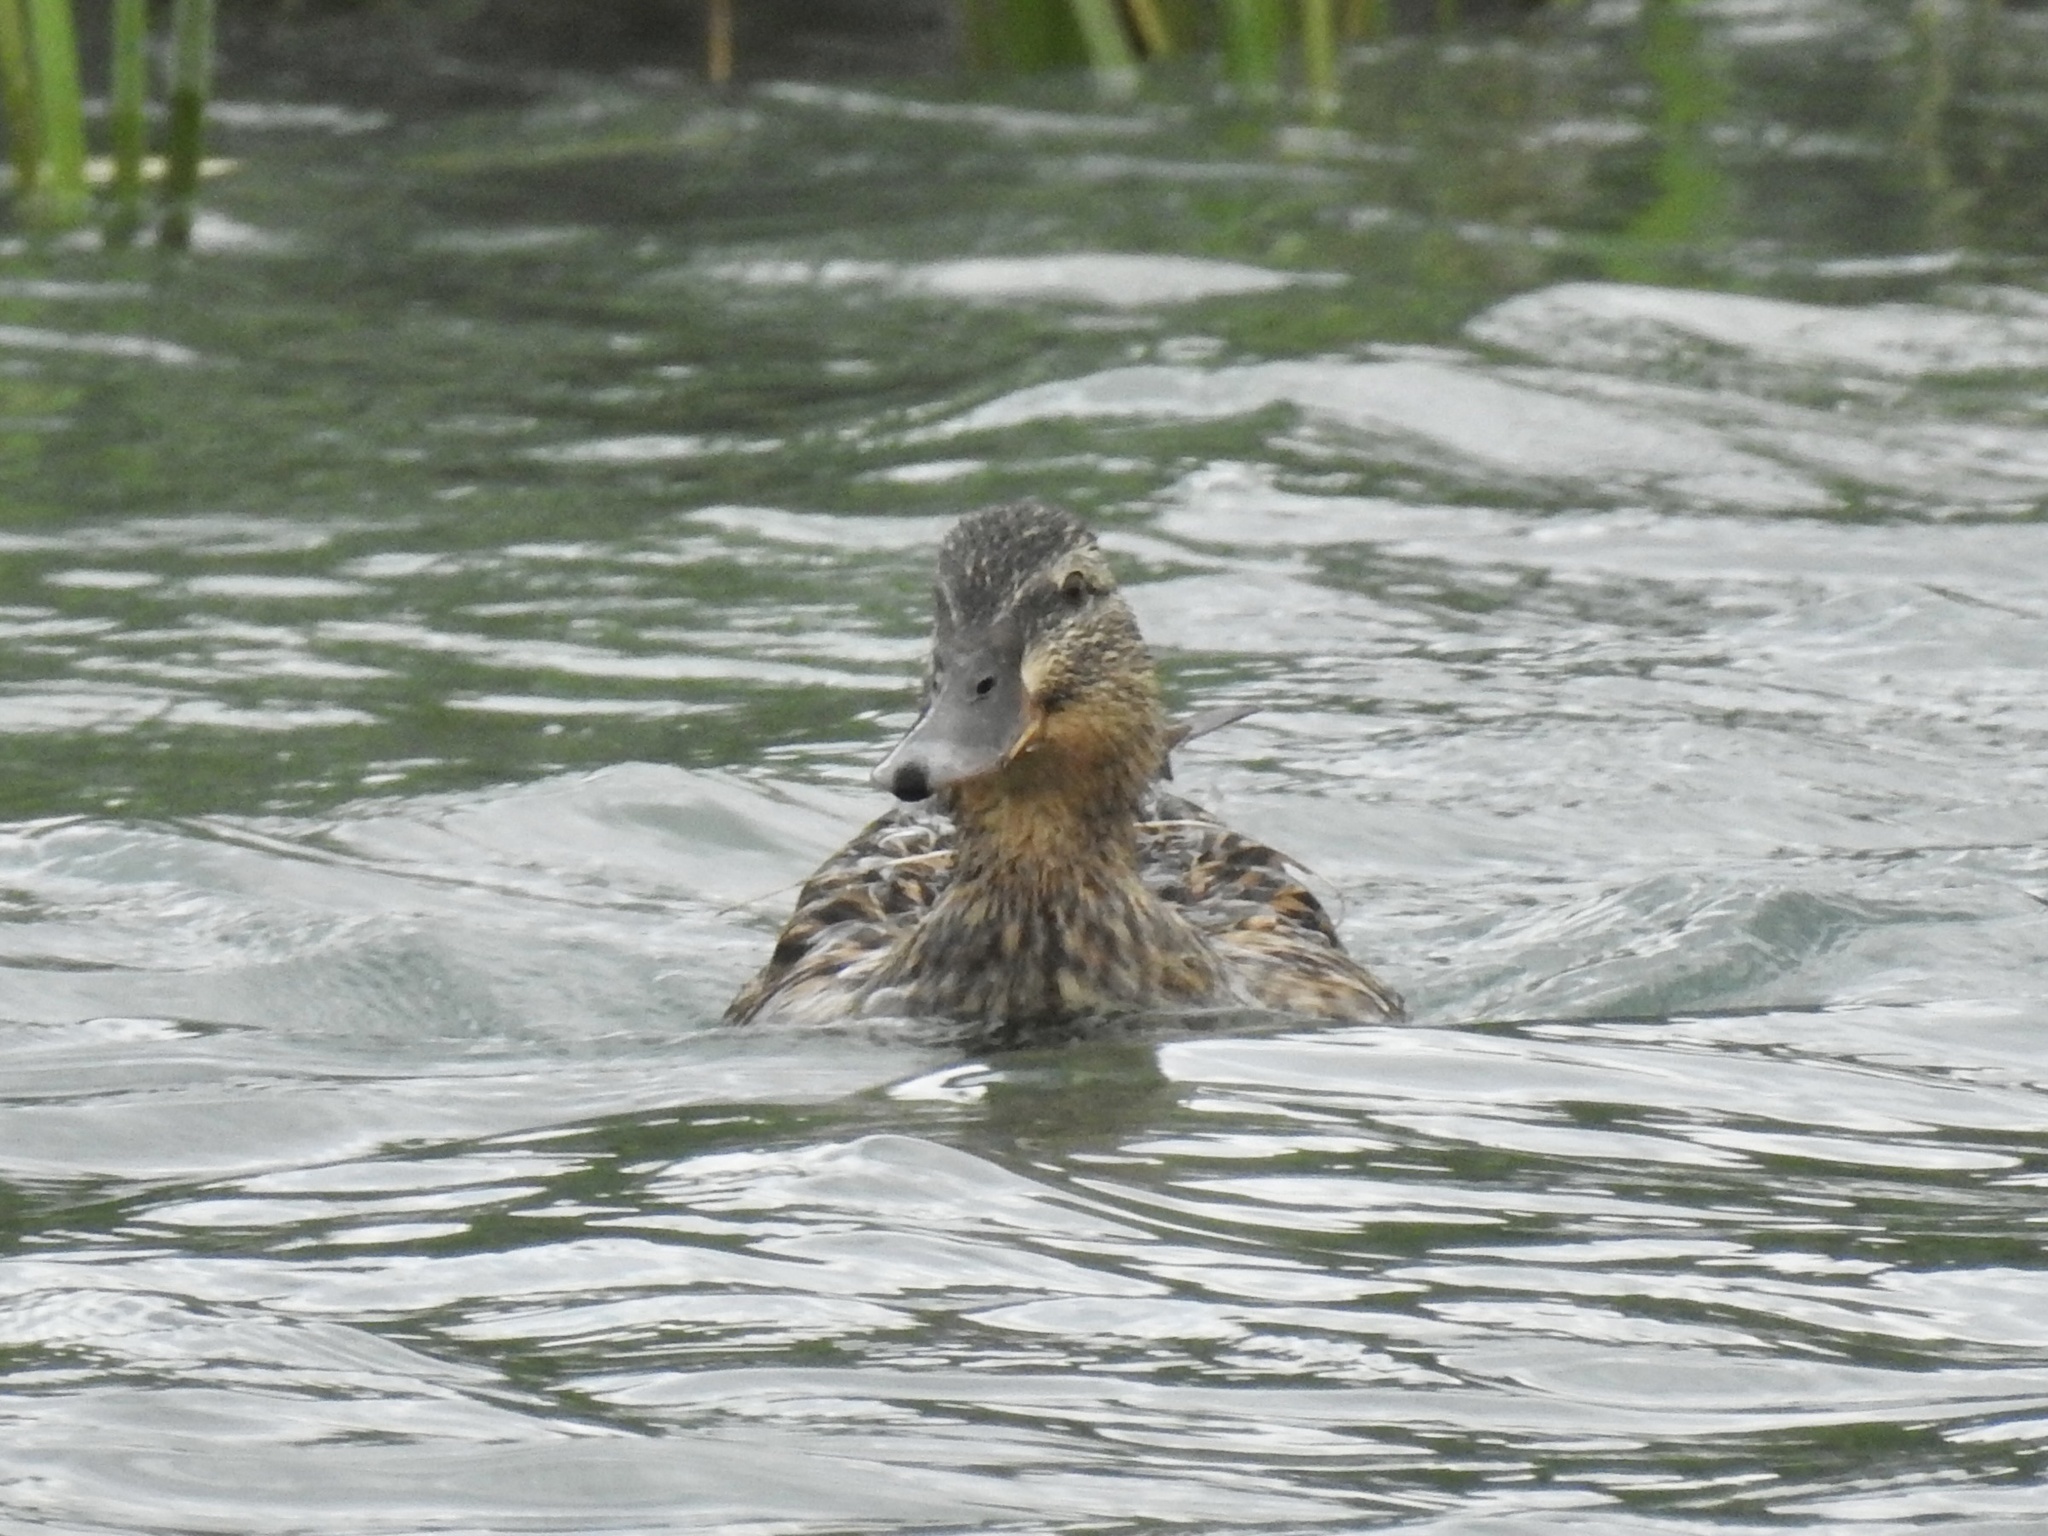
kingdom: Animalia
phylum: Chordata
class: Aves
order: Anseriformes
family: Anatidae
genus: Anas
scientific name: Anas platyrhynchos
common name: Mallard
